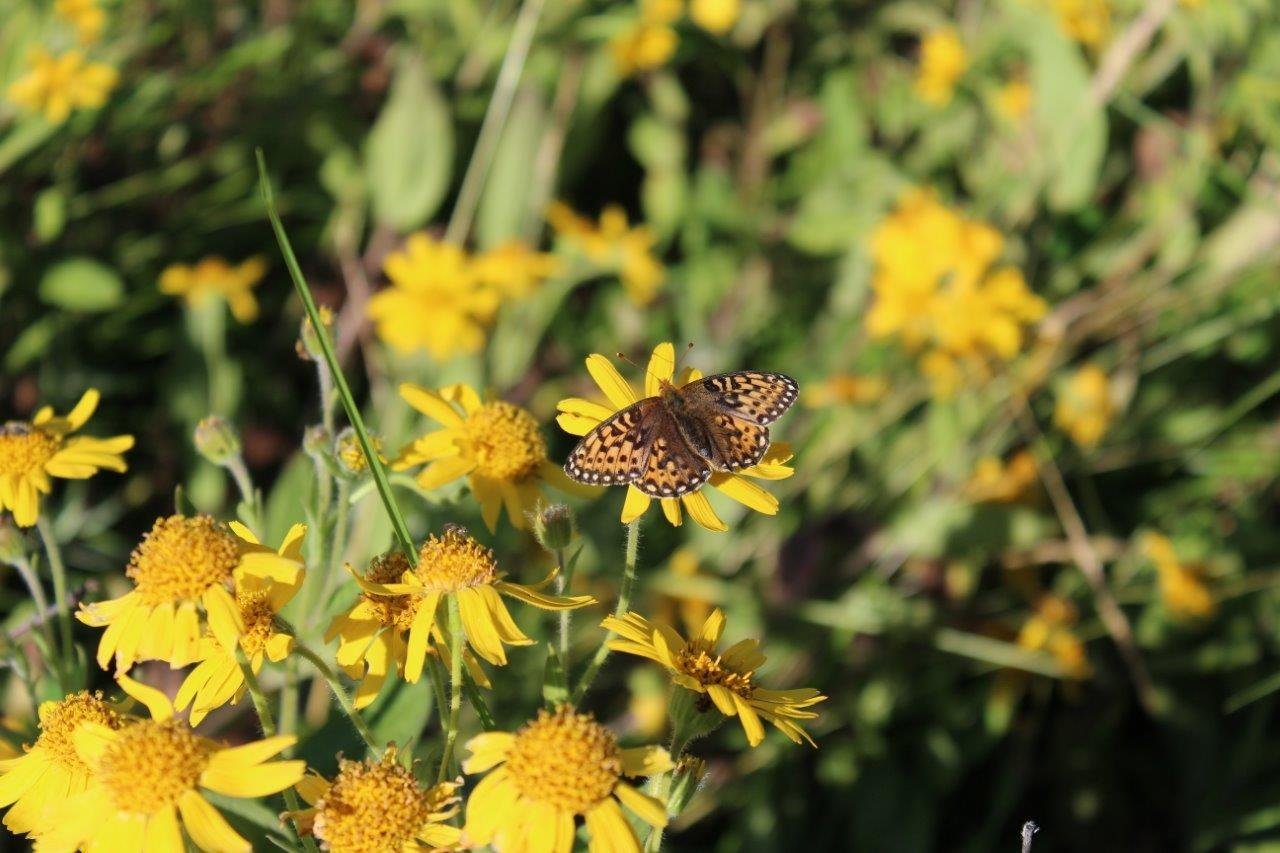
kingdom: Animalia
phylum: Arthropoda
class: Insecta
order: Lepidoptera
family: Nymphalidae
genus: Speyeria
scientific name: Speyeria mormonia
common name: Mormon fritillary
